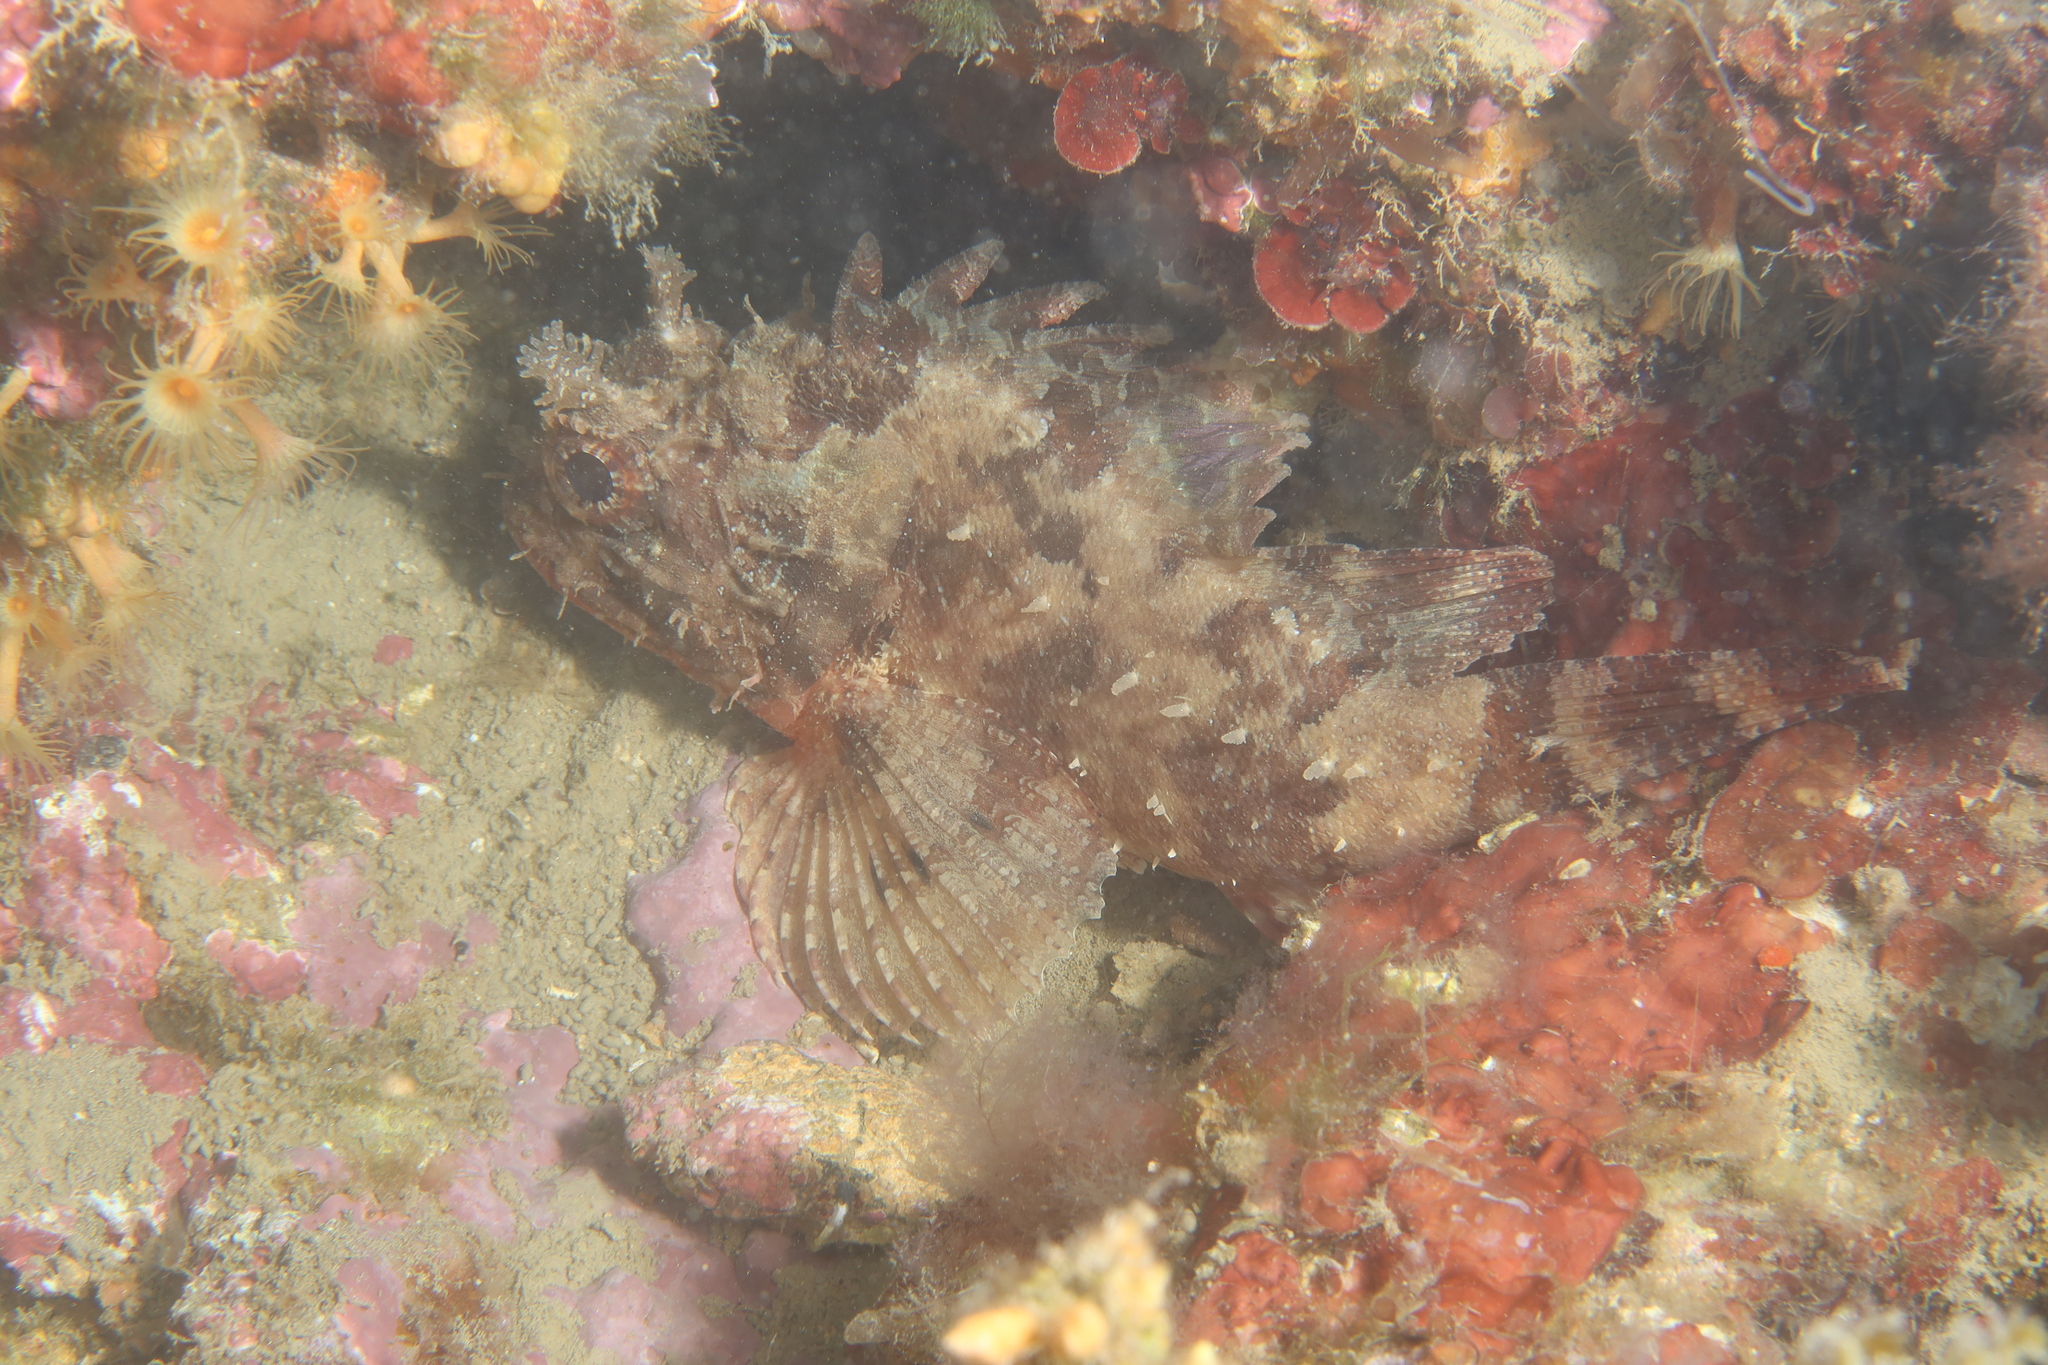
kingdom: Animalia
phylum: Chordata
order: Scorpaeniformes
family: Scorpaenidae
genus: Scorpaena
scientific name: Scorpaena porcus
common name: Black scorpionfish
